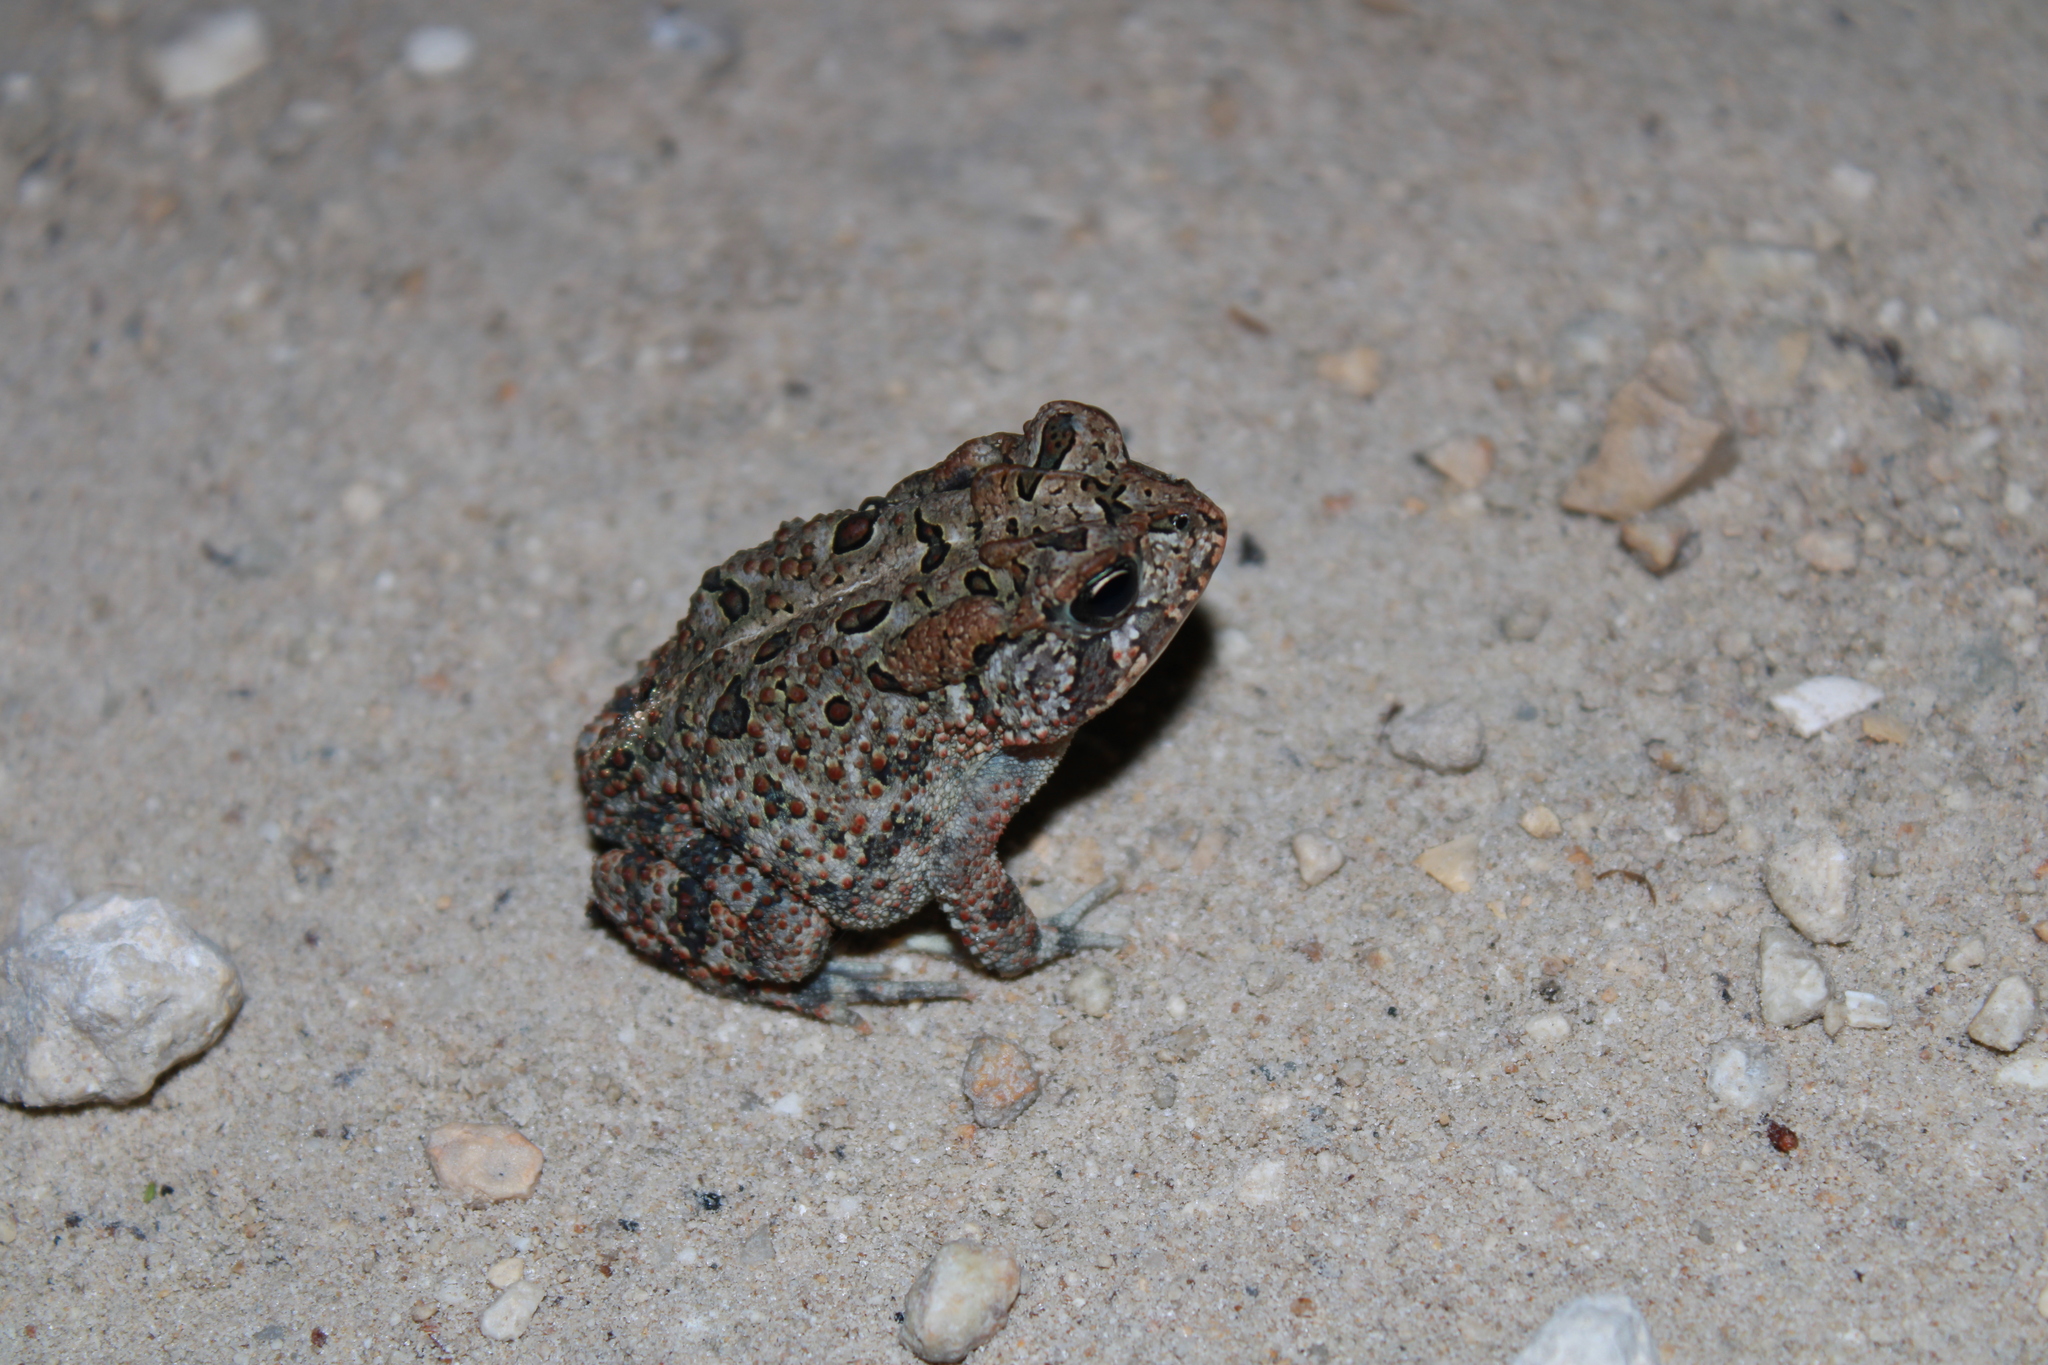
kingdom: Animalia
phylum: Chordata
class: Amphibia
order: Anura
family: Bufonidae
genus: Anaxyrus
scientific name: Anaxyrus terrestris
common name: Southern toad
